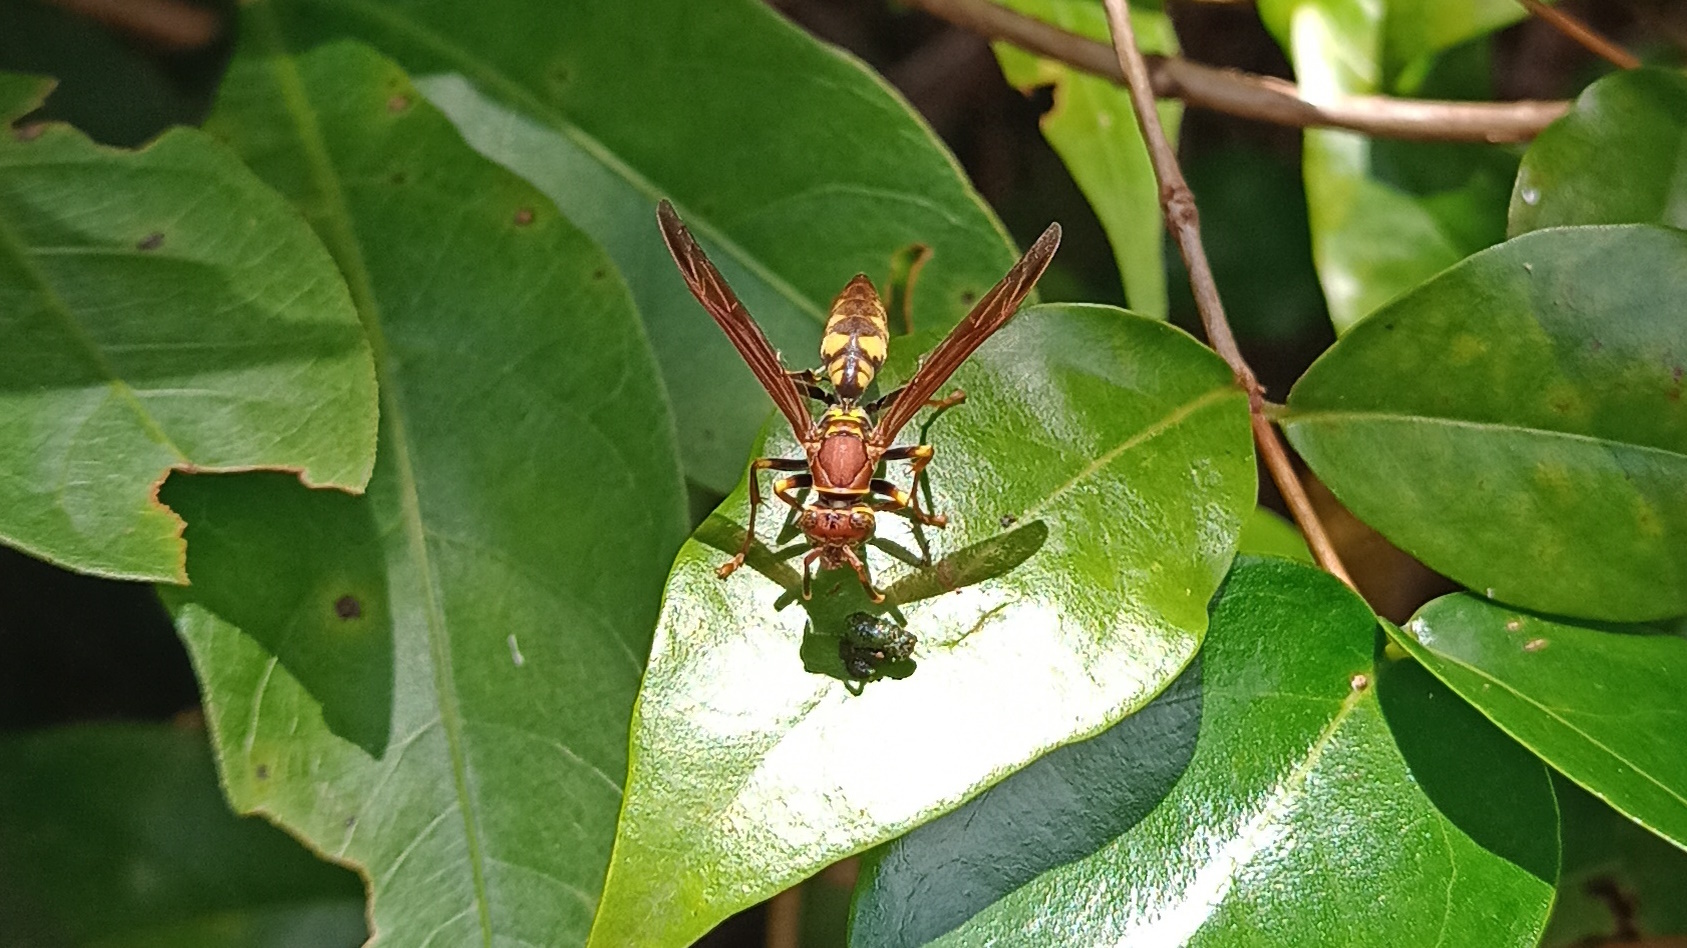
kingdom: Animalia
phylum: Arthropoda
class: Insecta
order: Hymenoptera
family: Eumenidae
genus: Polistes
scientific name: Polistes versicolor
